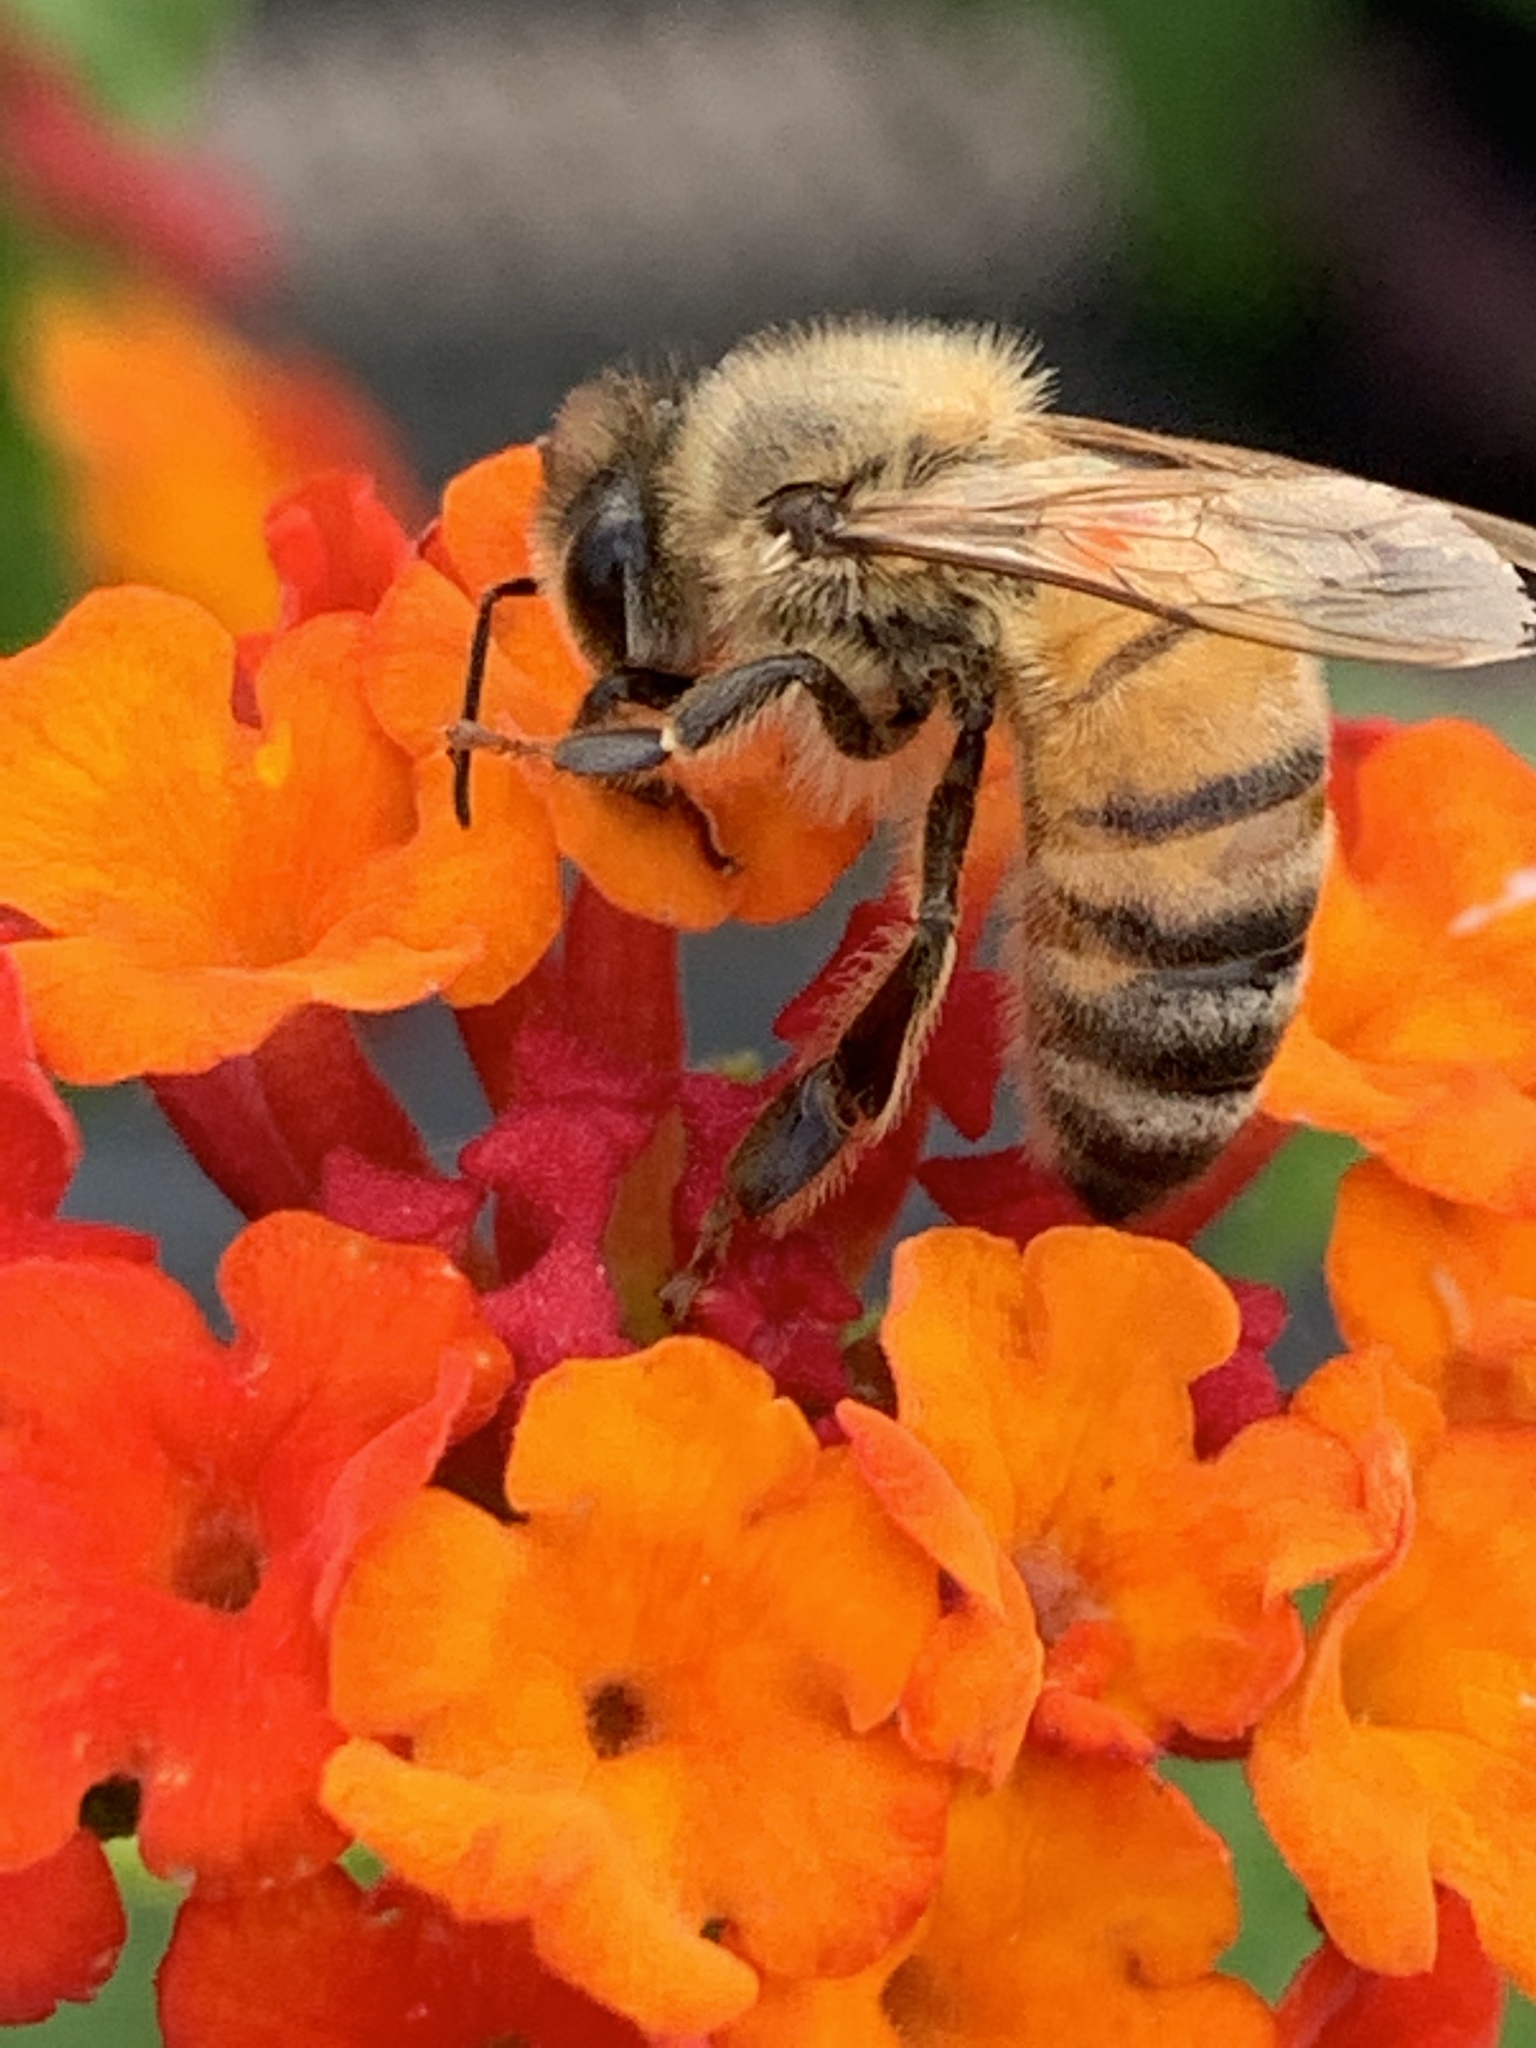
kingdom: Animalia
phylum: Arthropoda
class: Insecta
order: Hymenoptera
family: Apidae
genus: Apis
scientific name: Apis mellifera
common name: Honey bee
